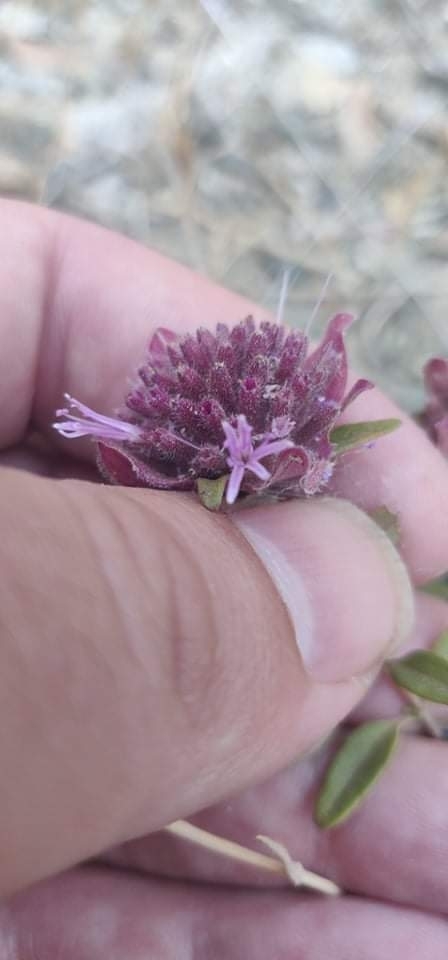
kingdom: Plantae
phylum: Tracheophyta
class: Magnoliopsida
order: Lamiales
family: Lamiaceae
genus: Monardella
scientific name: Monardella palmeri
